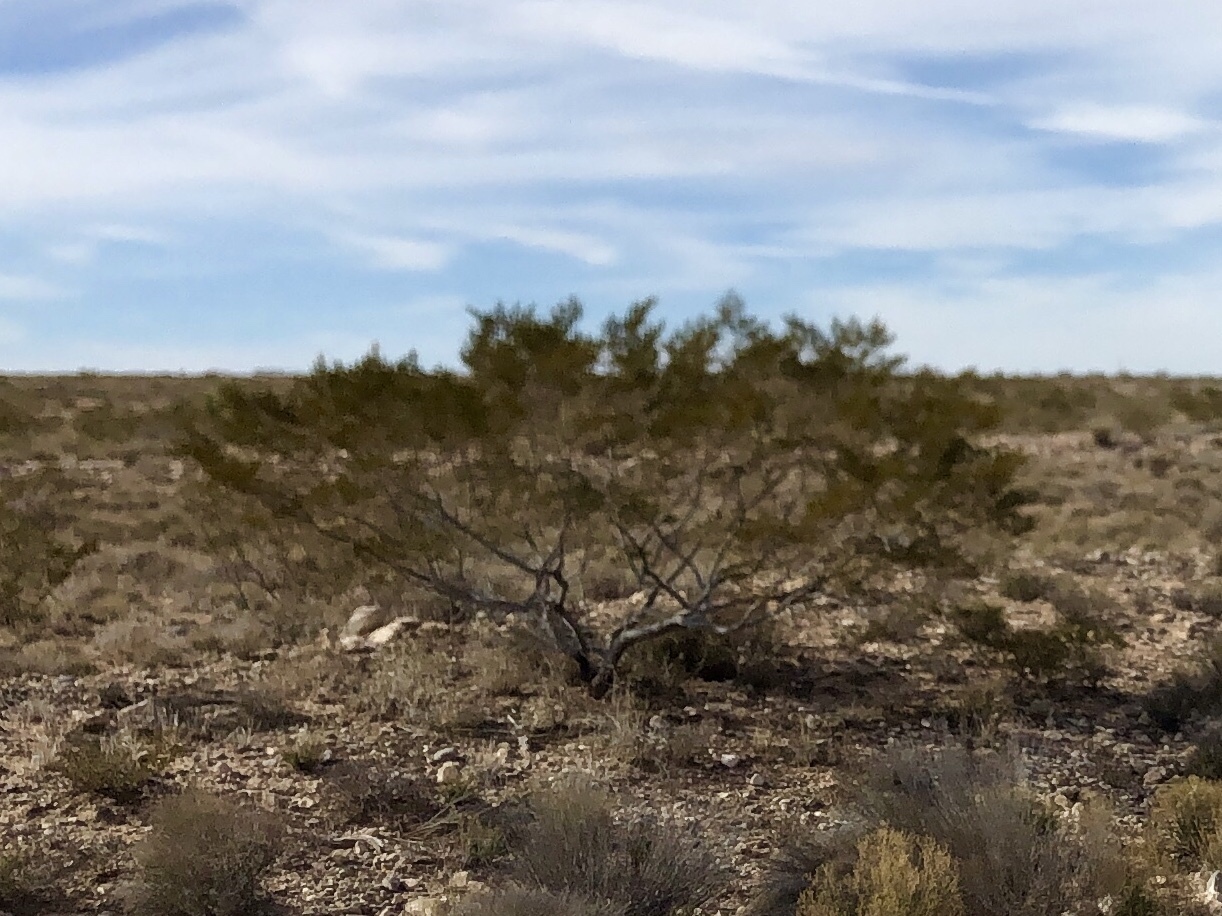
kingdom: Plantae
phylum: Tracheophyta
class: Magnoliopsida
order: Zygophyllales
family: Zygophyllaceae
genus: Larrea
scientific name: Larrea tridentata
